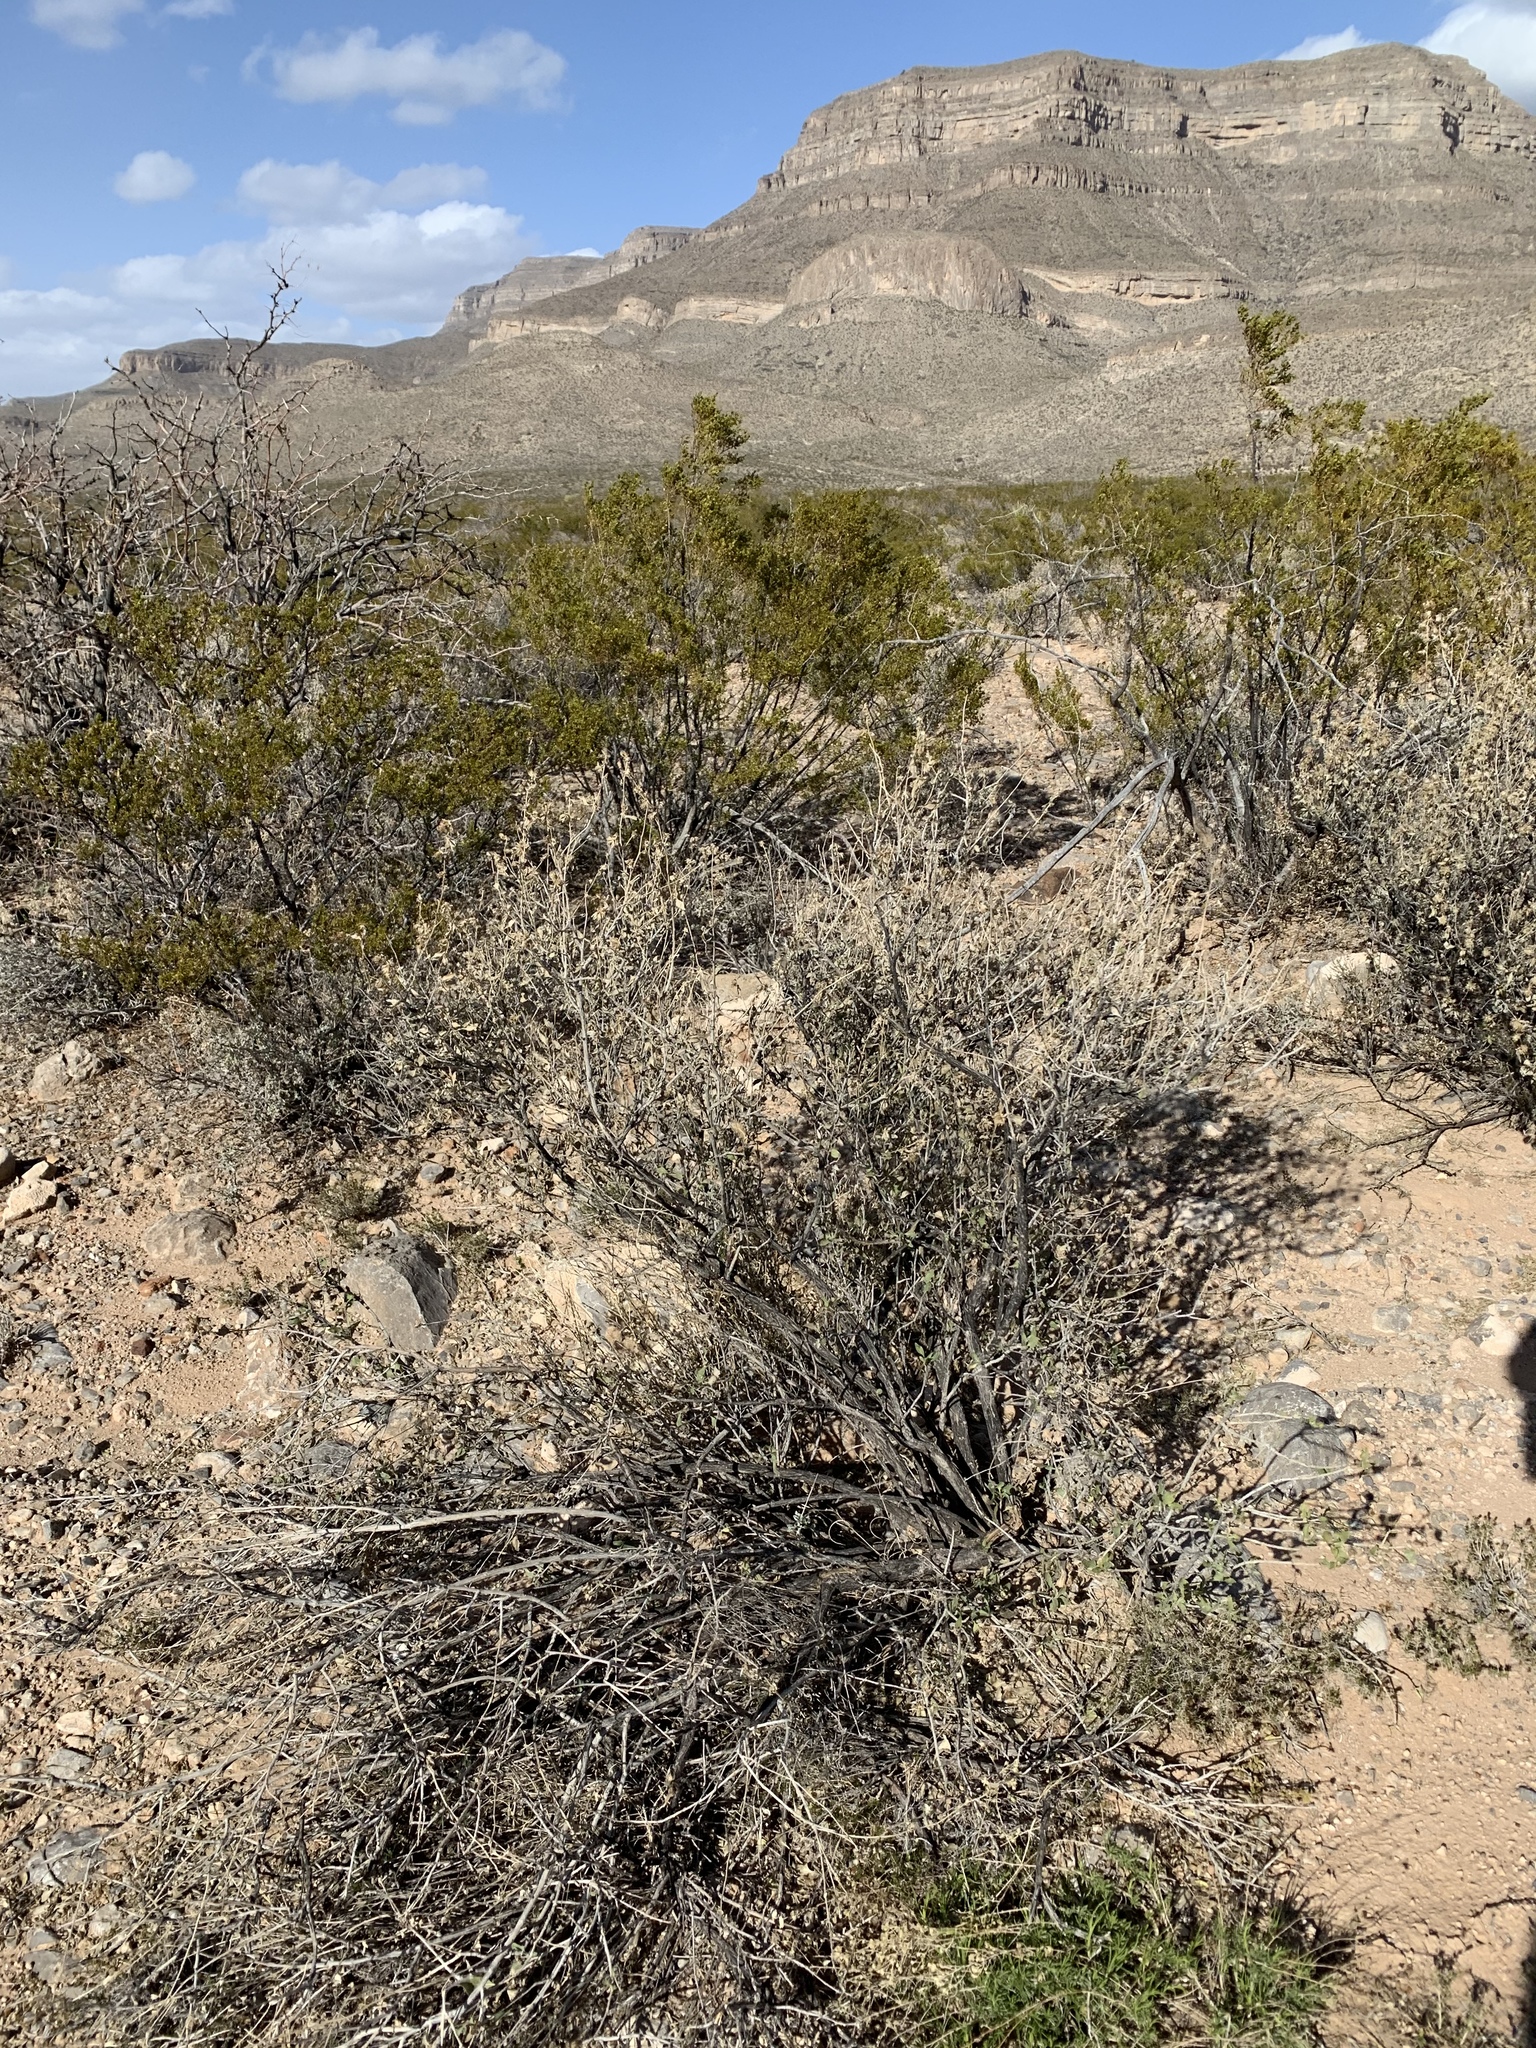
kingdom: Plantae
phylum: Tracheophyta
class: Magnoliopsida
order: Asterales
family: Asteraceae
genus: Flourensia
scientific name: Flourensia cernua
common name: Varnishbush
